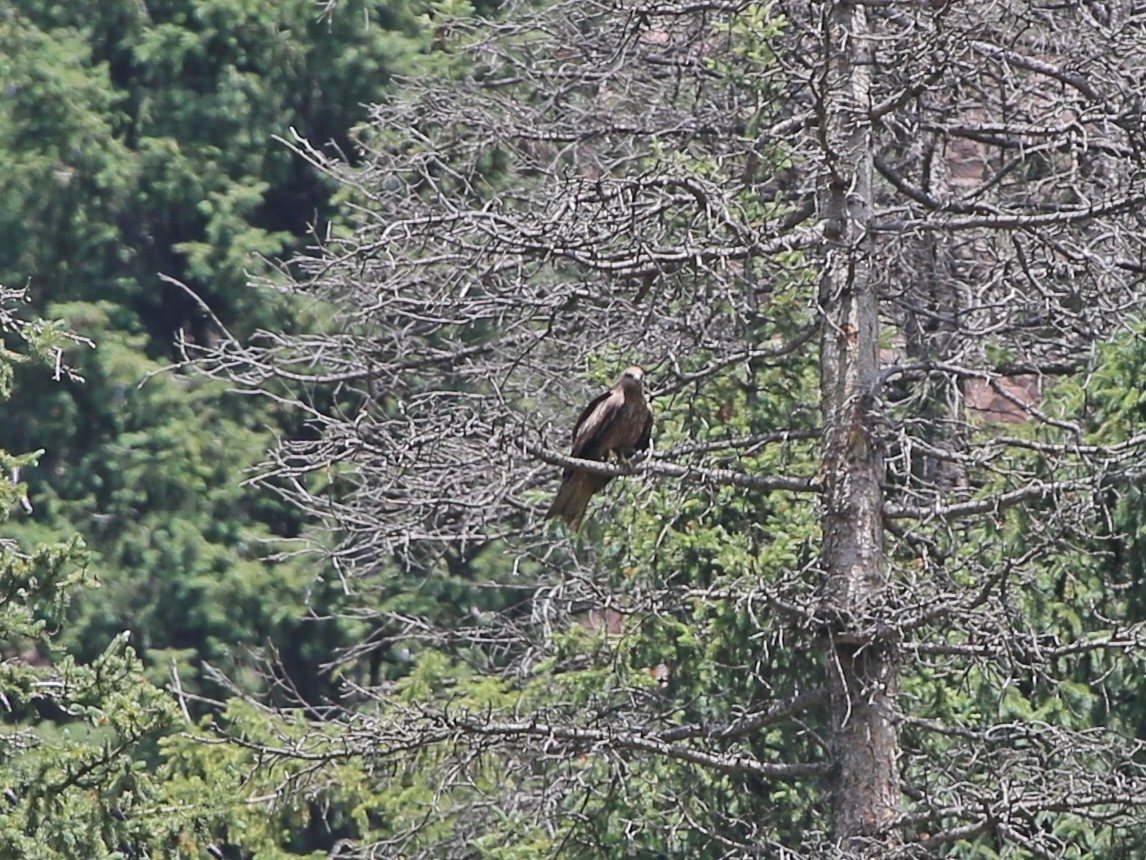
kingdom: Animalia
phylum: Chordata
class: Aves
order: Accipitriformes
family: Accipitridae
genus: Milvus
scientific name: Milvus migrans
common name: Black kite
